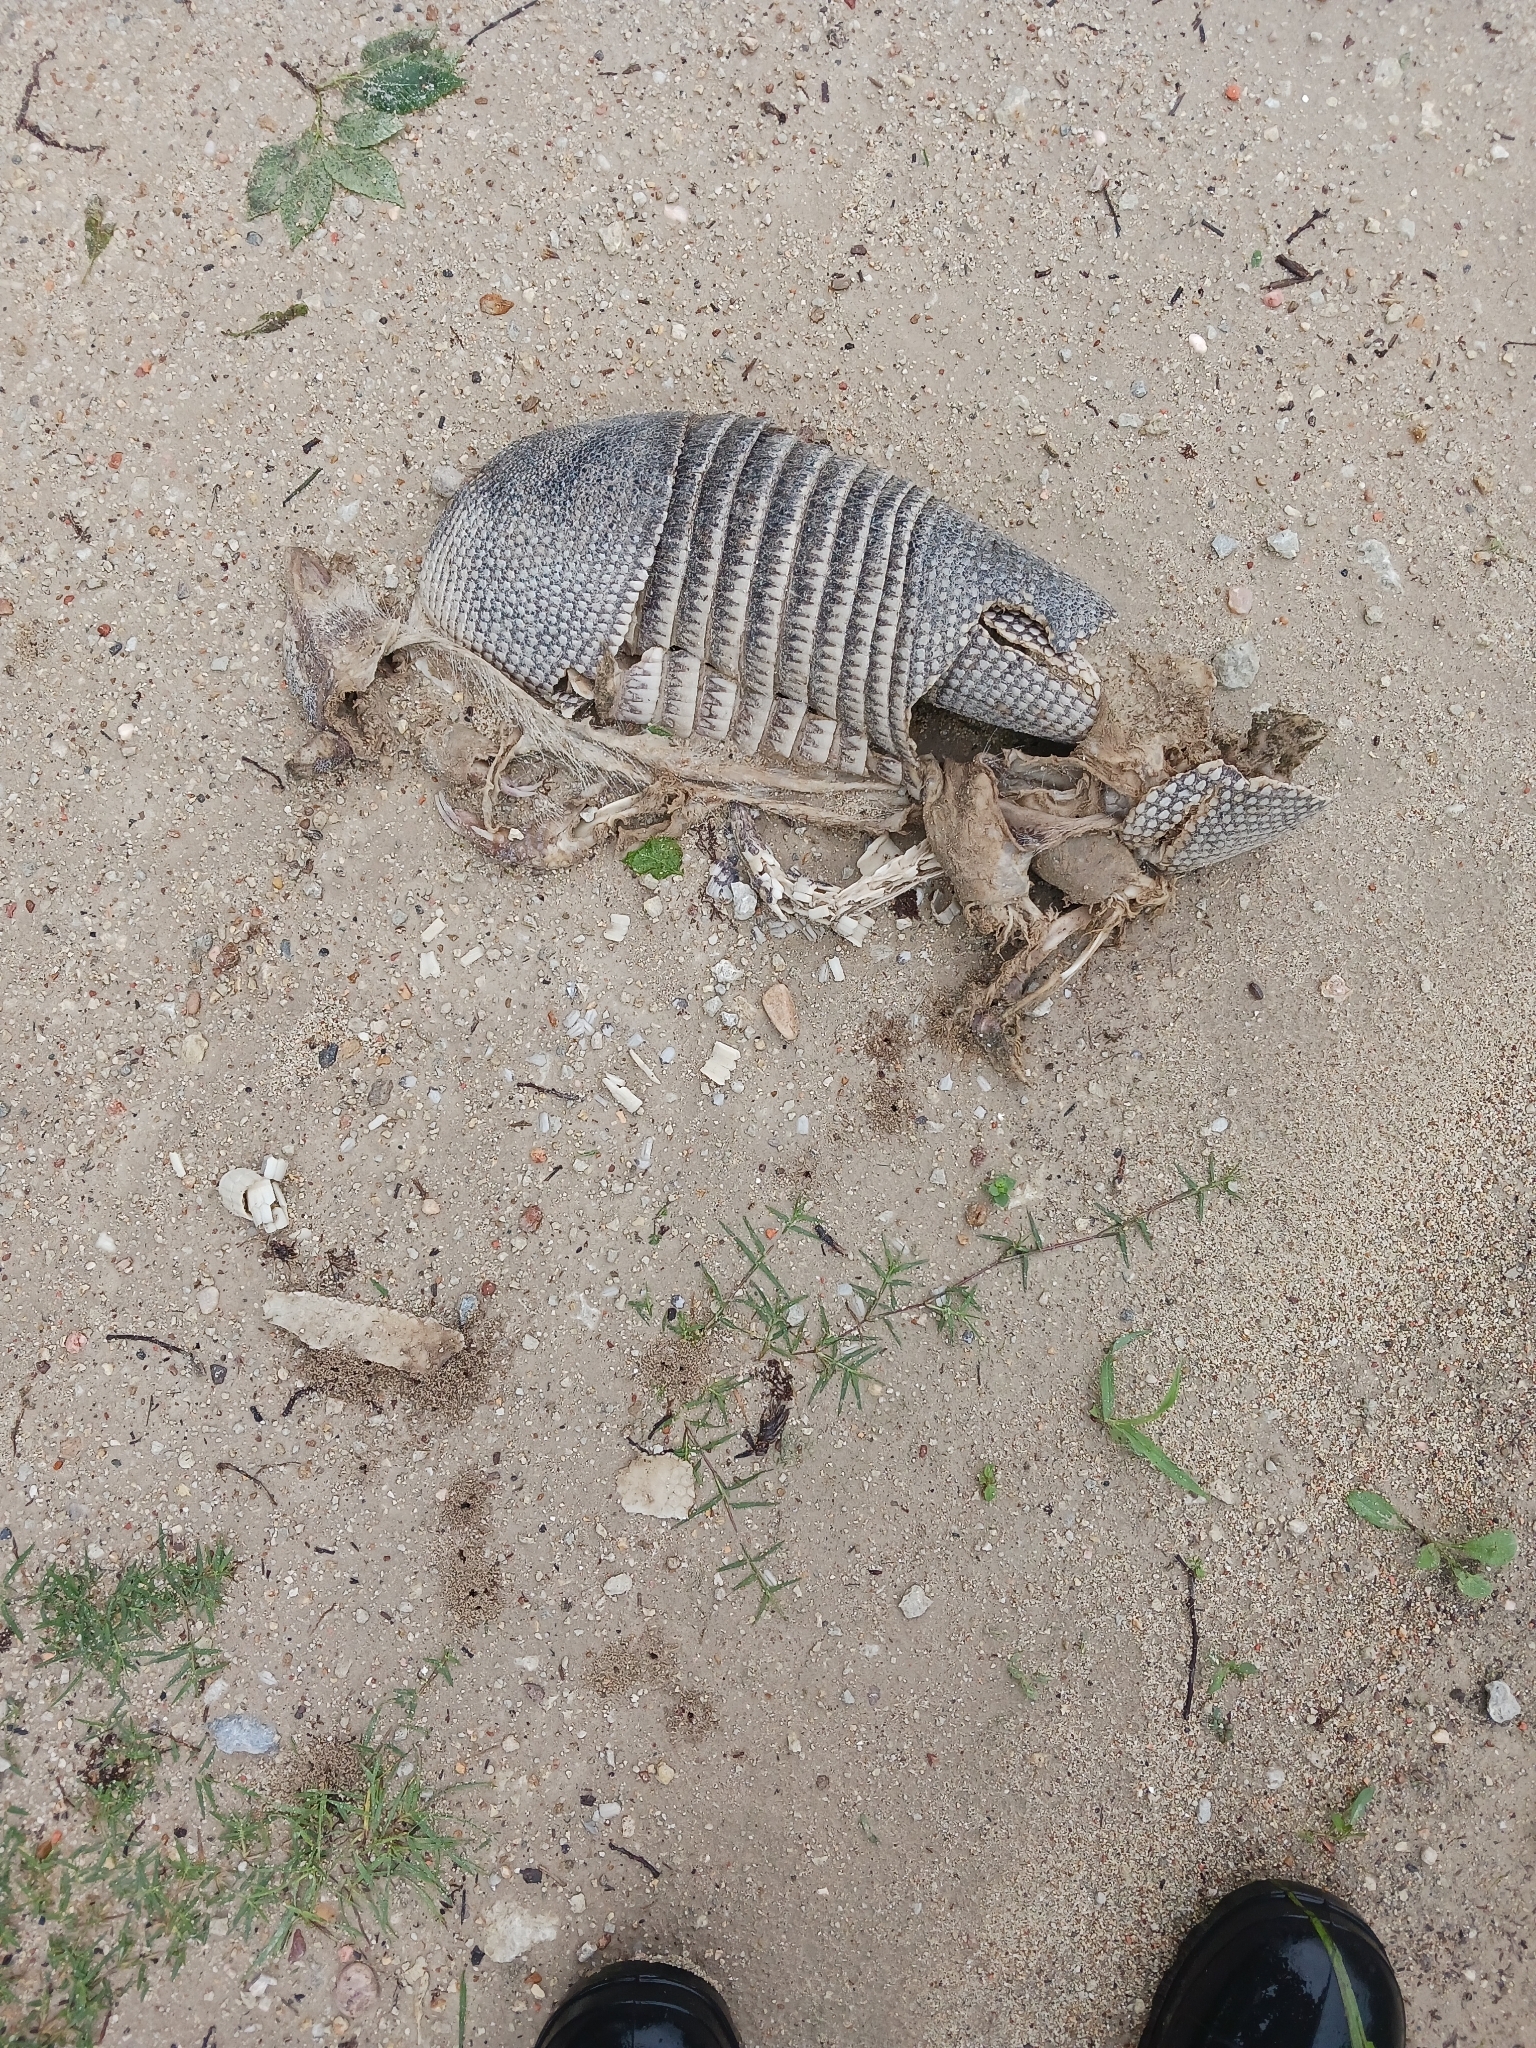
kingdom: Animalia
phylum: Chordata
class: Mammalia
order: Cingulata
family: Dasypodidae
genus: Dasypus
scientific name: Dasypus novemcinctus
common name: Nine-banded armadillo
